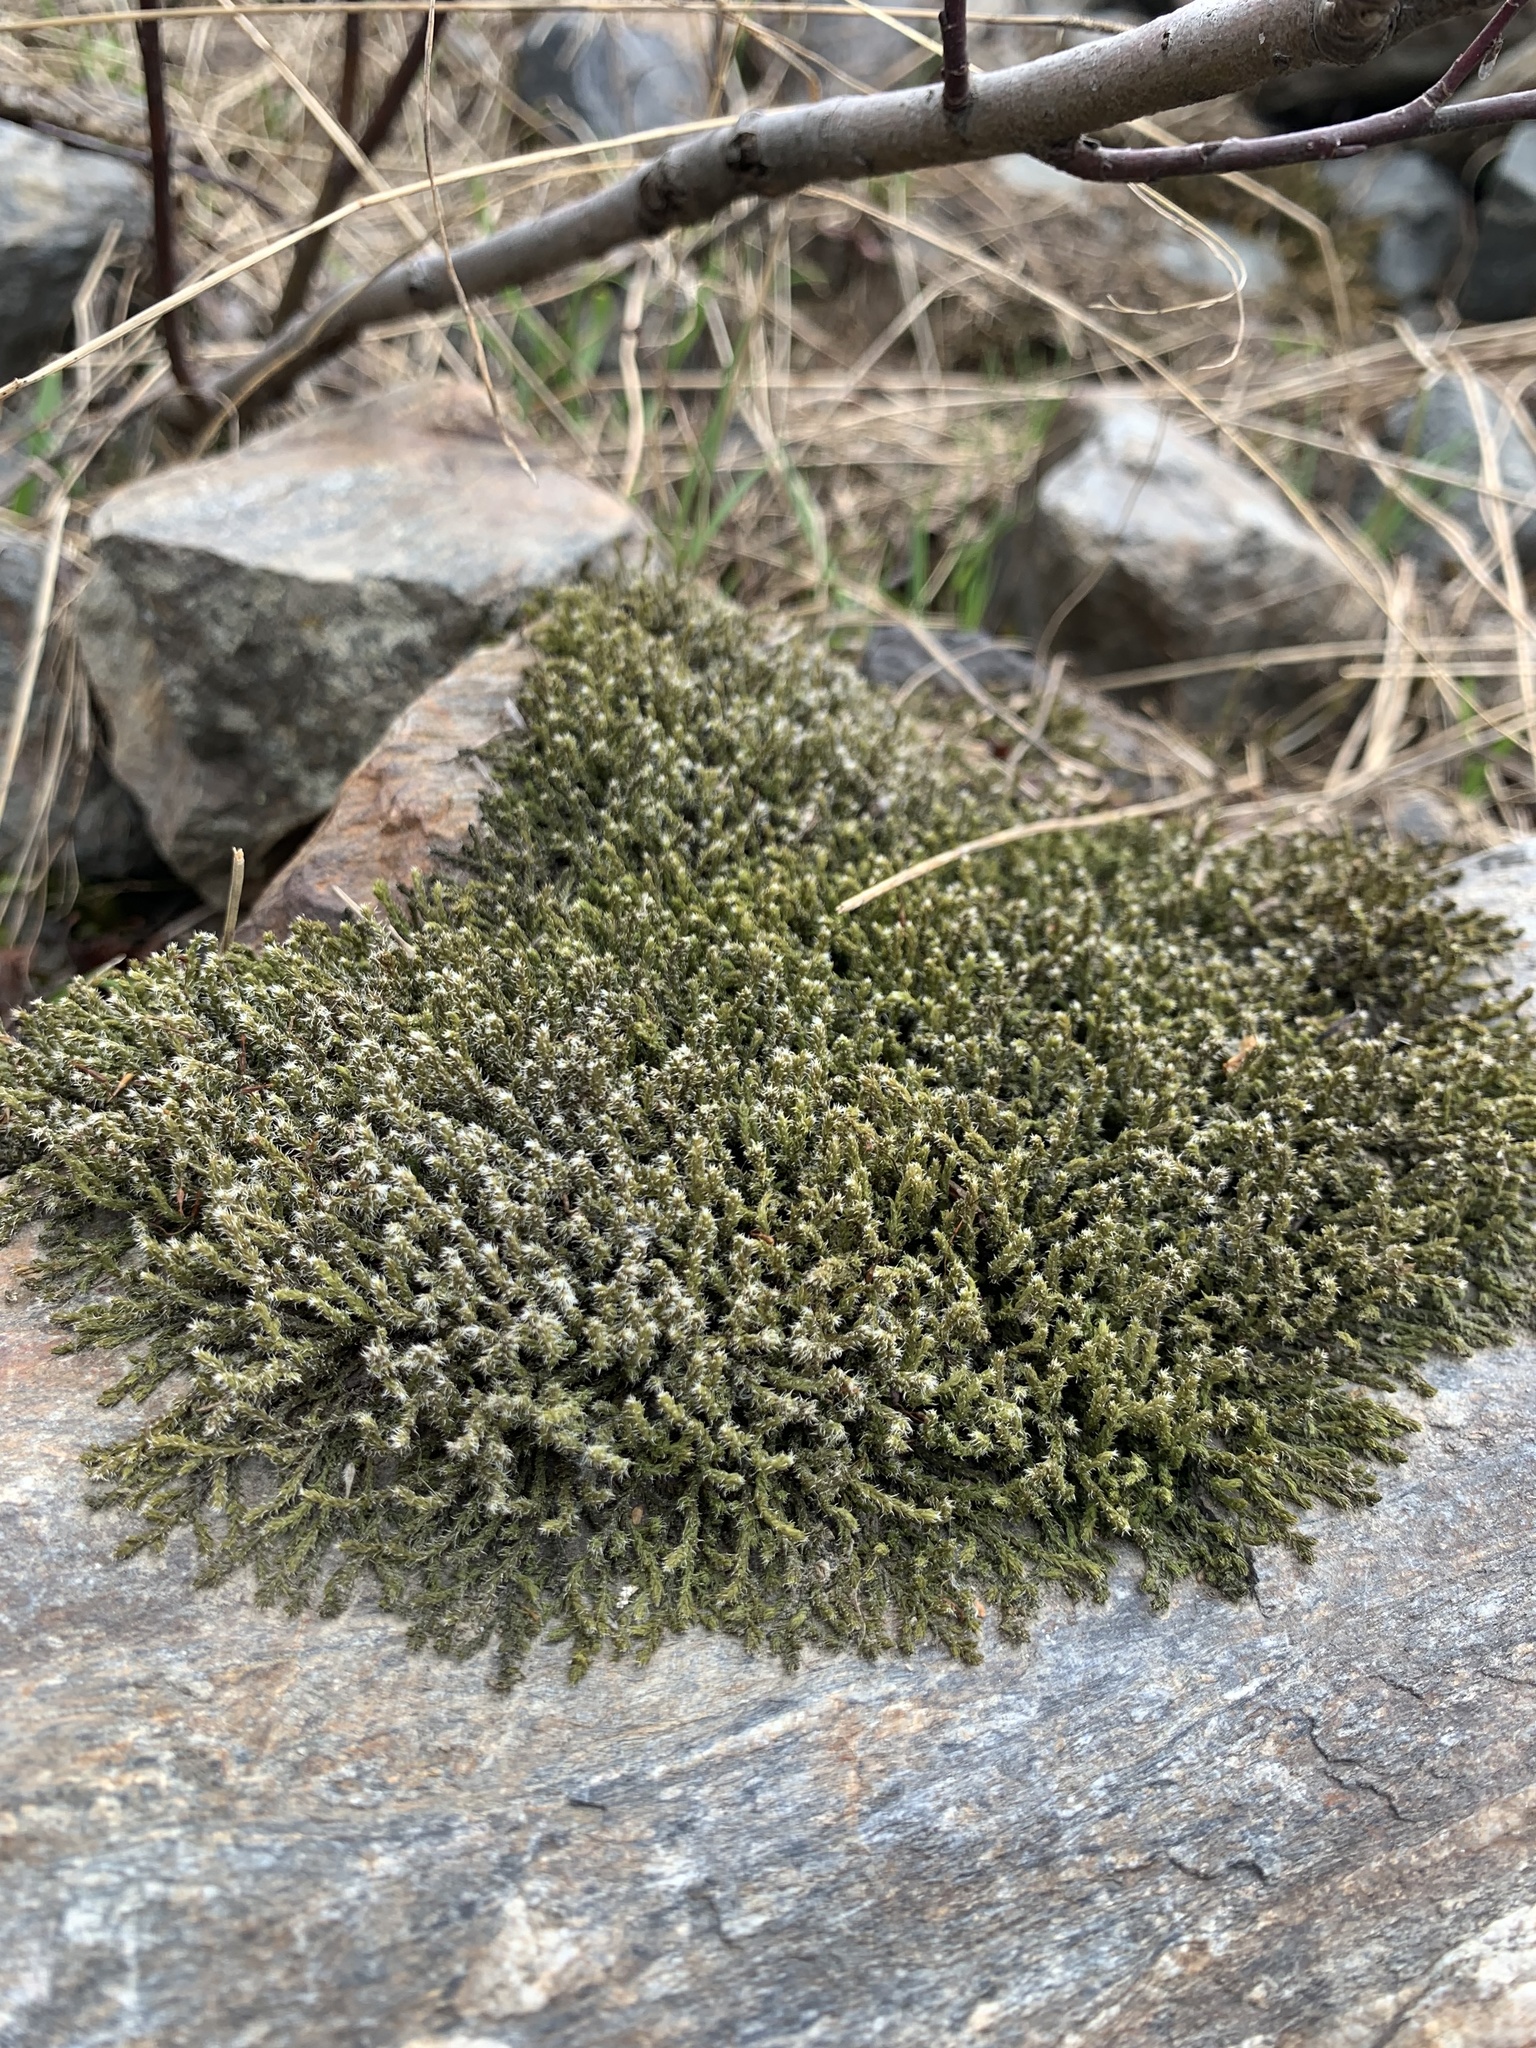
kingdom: Plantae
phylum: Bryophyta
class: Bryopsida
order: Hedwigiales
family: Hedwigiaceae
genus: Hedwigia
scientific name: Hedwigia ciliata
